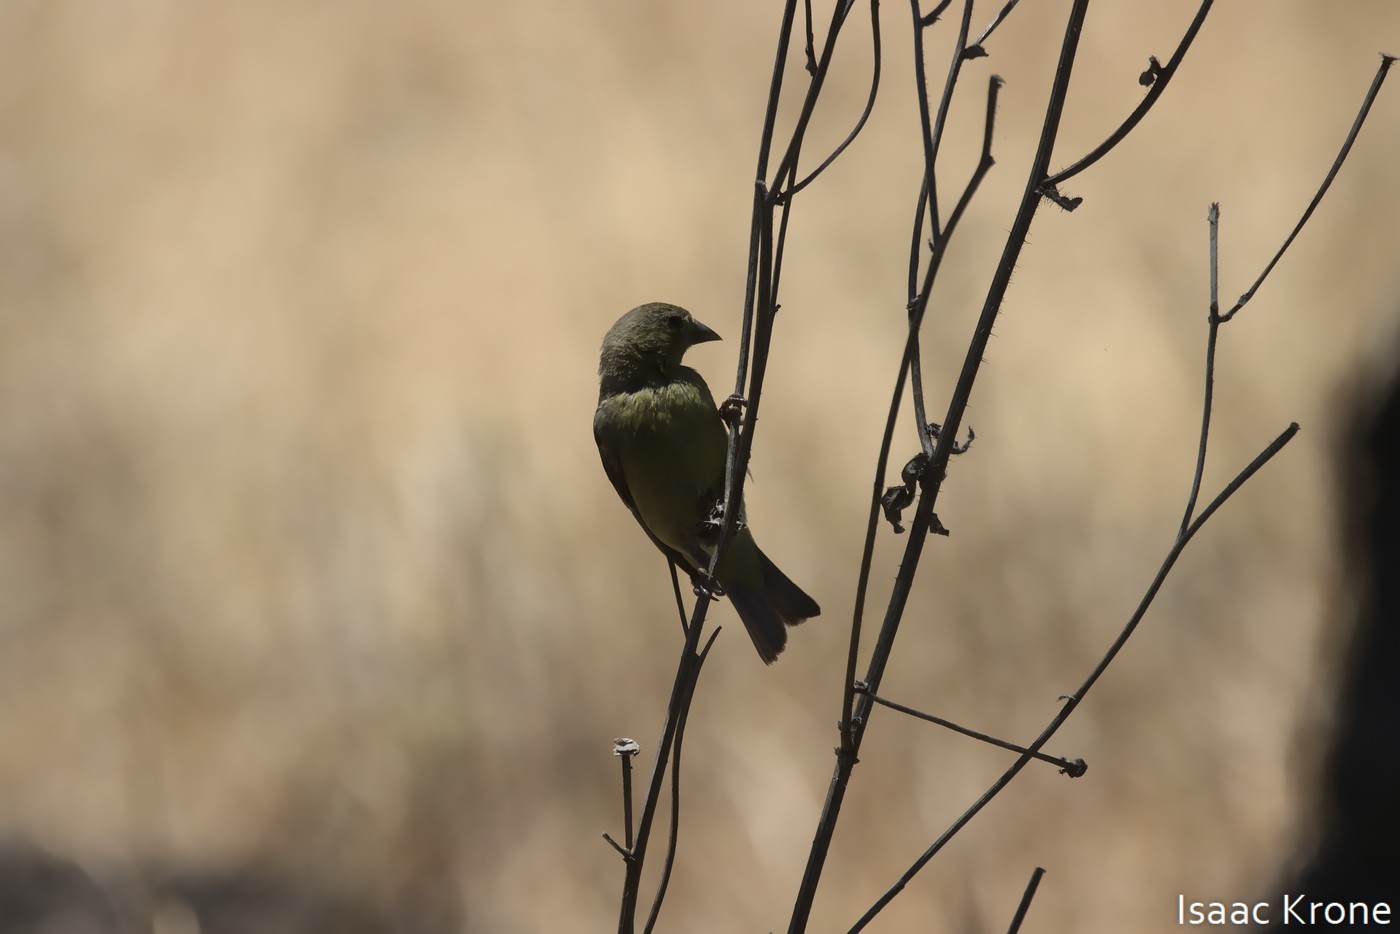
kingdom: Animalia
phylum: Chordata
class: Aves
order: Passeriformes
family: Fringillidae
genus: Spinus
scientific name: Spinus psaltria
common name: Lesser goldfinch
